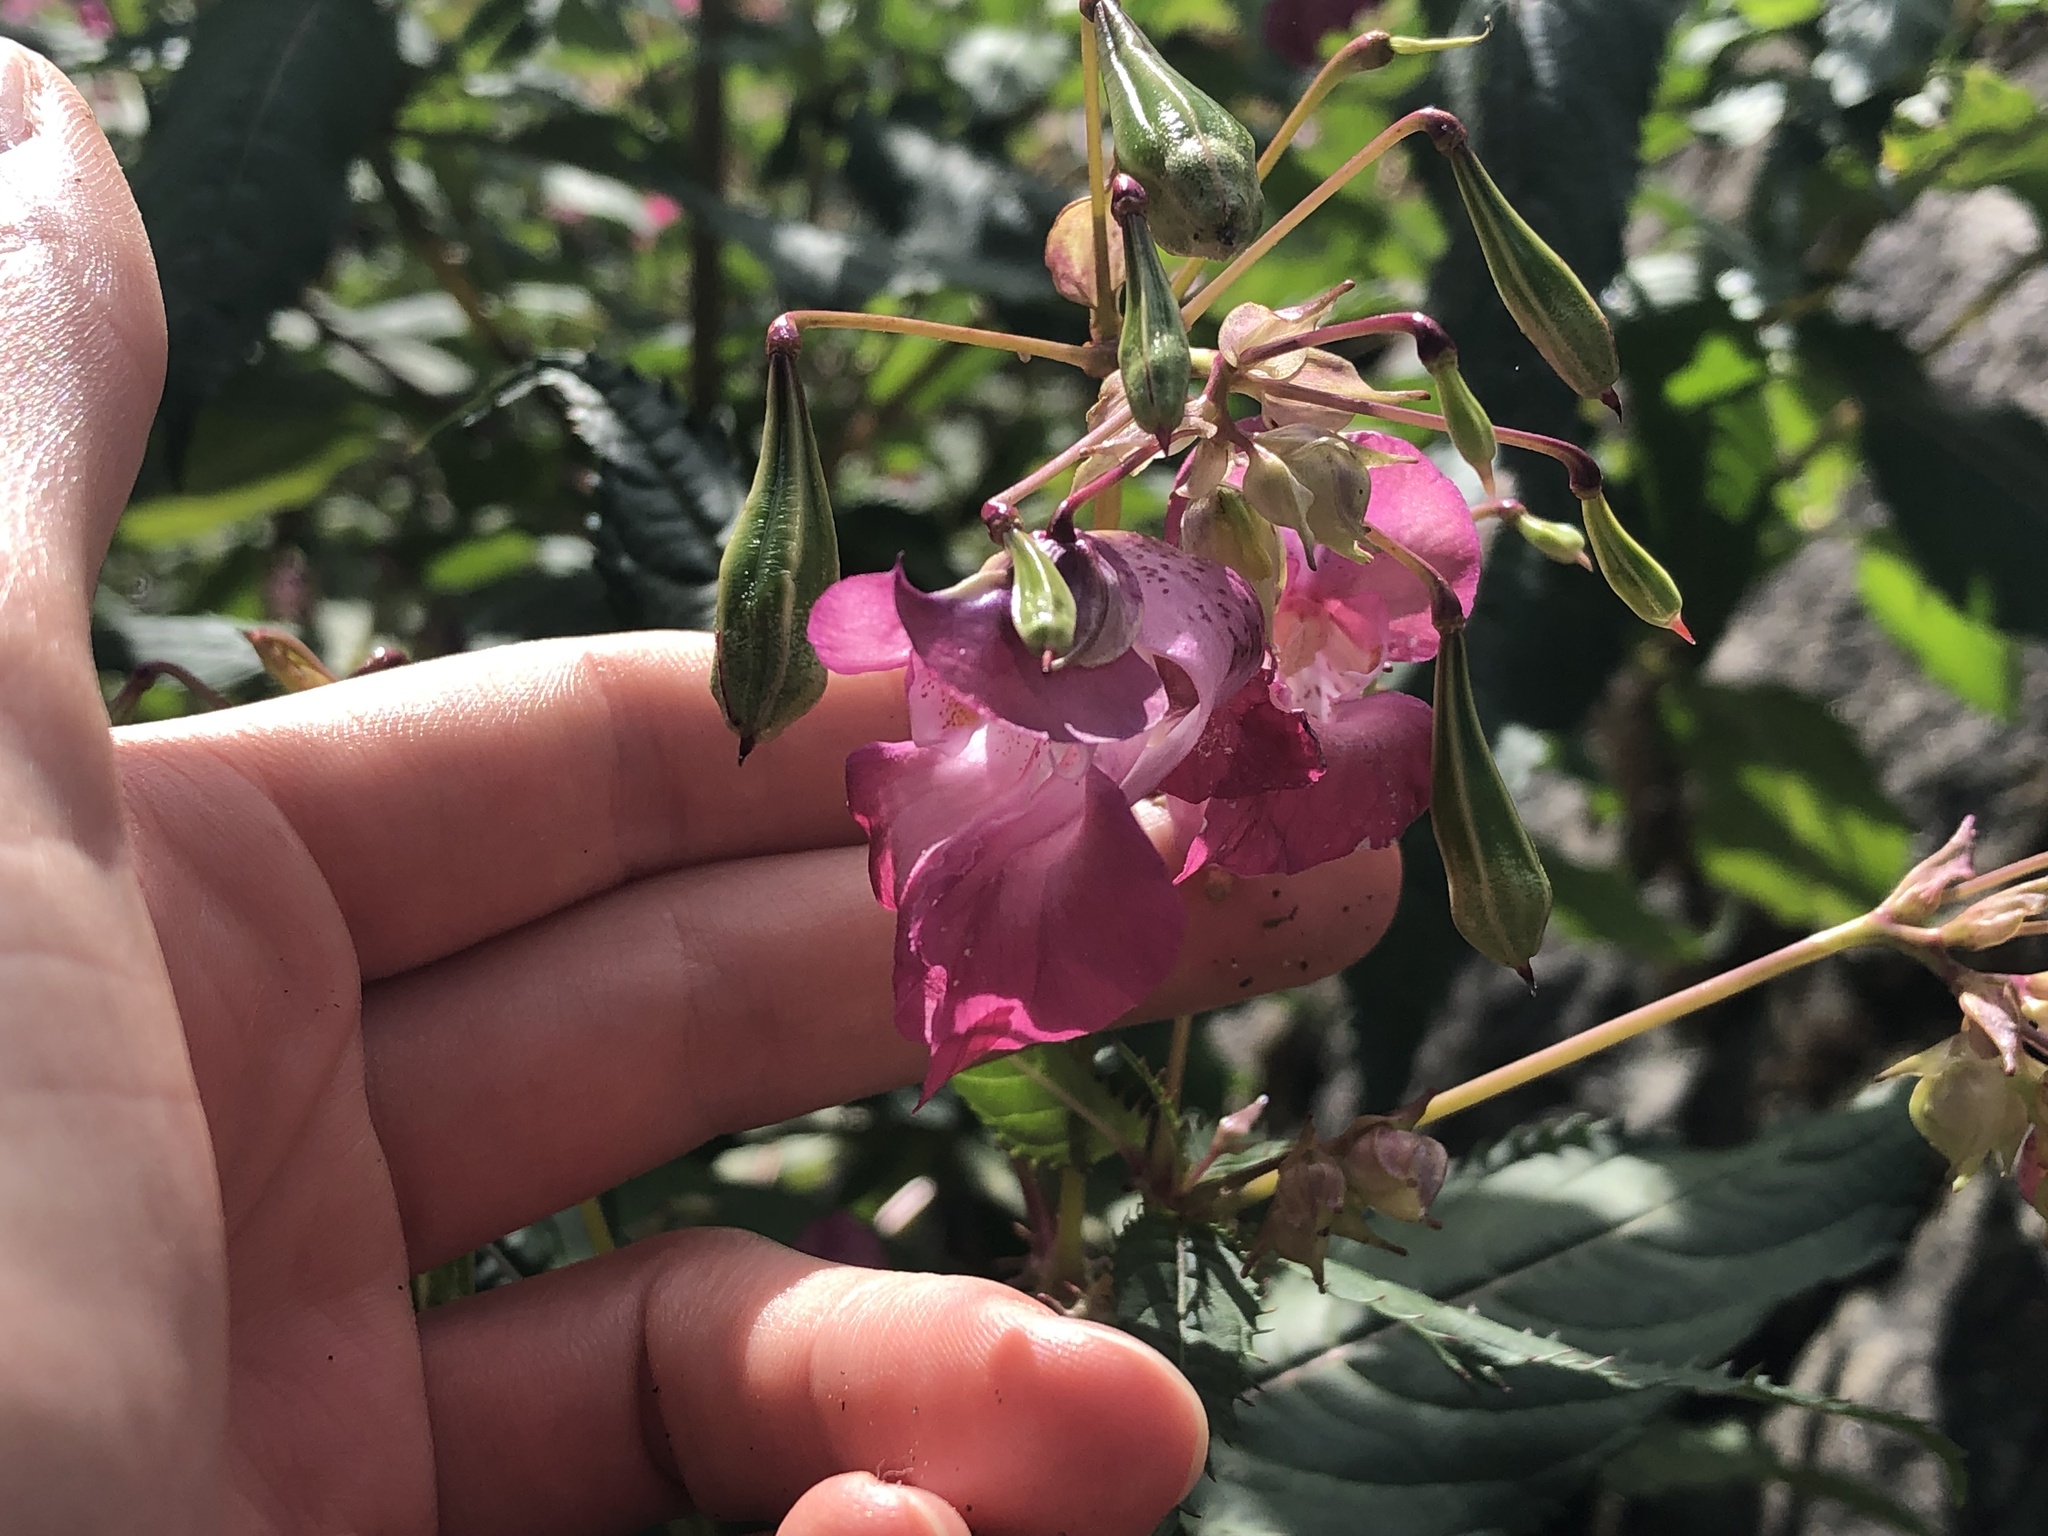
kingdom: Plantae
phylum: Tracheophyta
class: Magnoliopsida
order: Ericales
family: Balsaminaceae
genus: Impatiens
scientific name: Impatiens glandulifera
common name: Himalayan balsam
